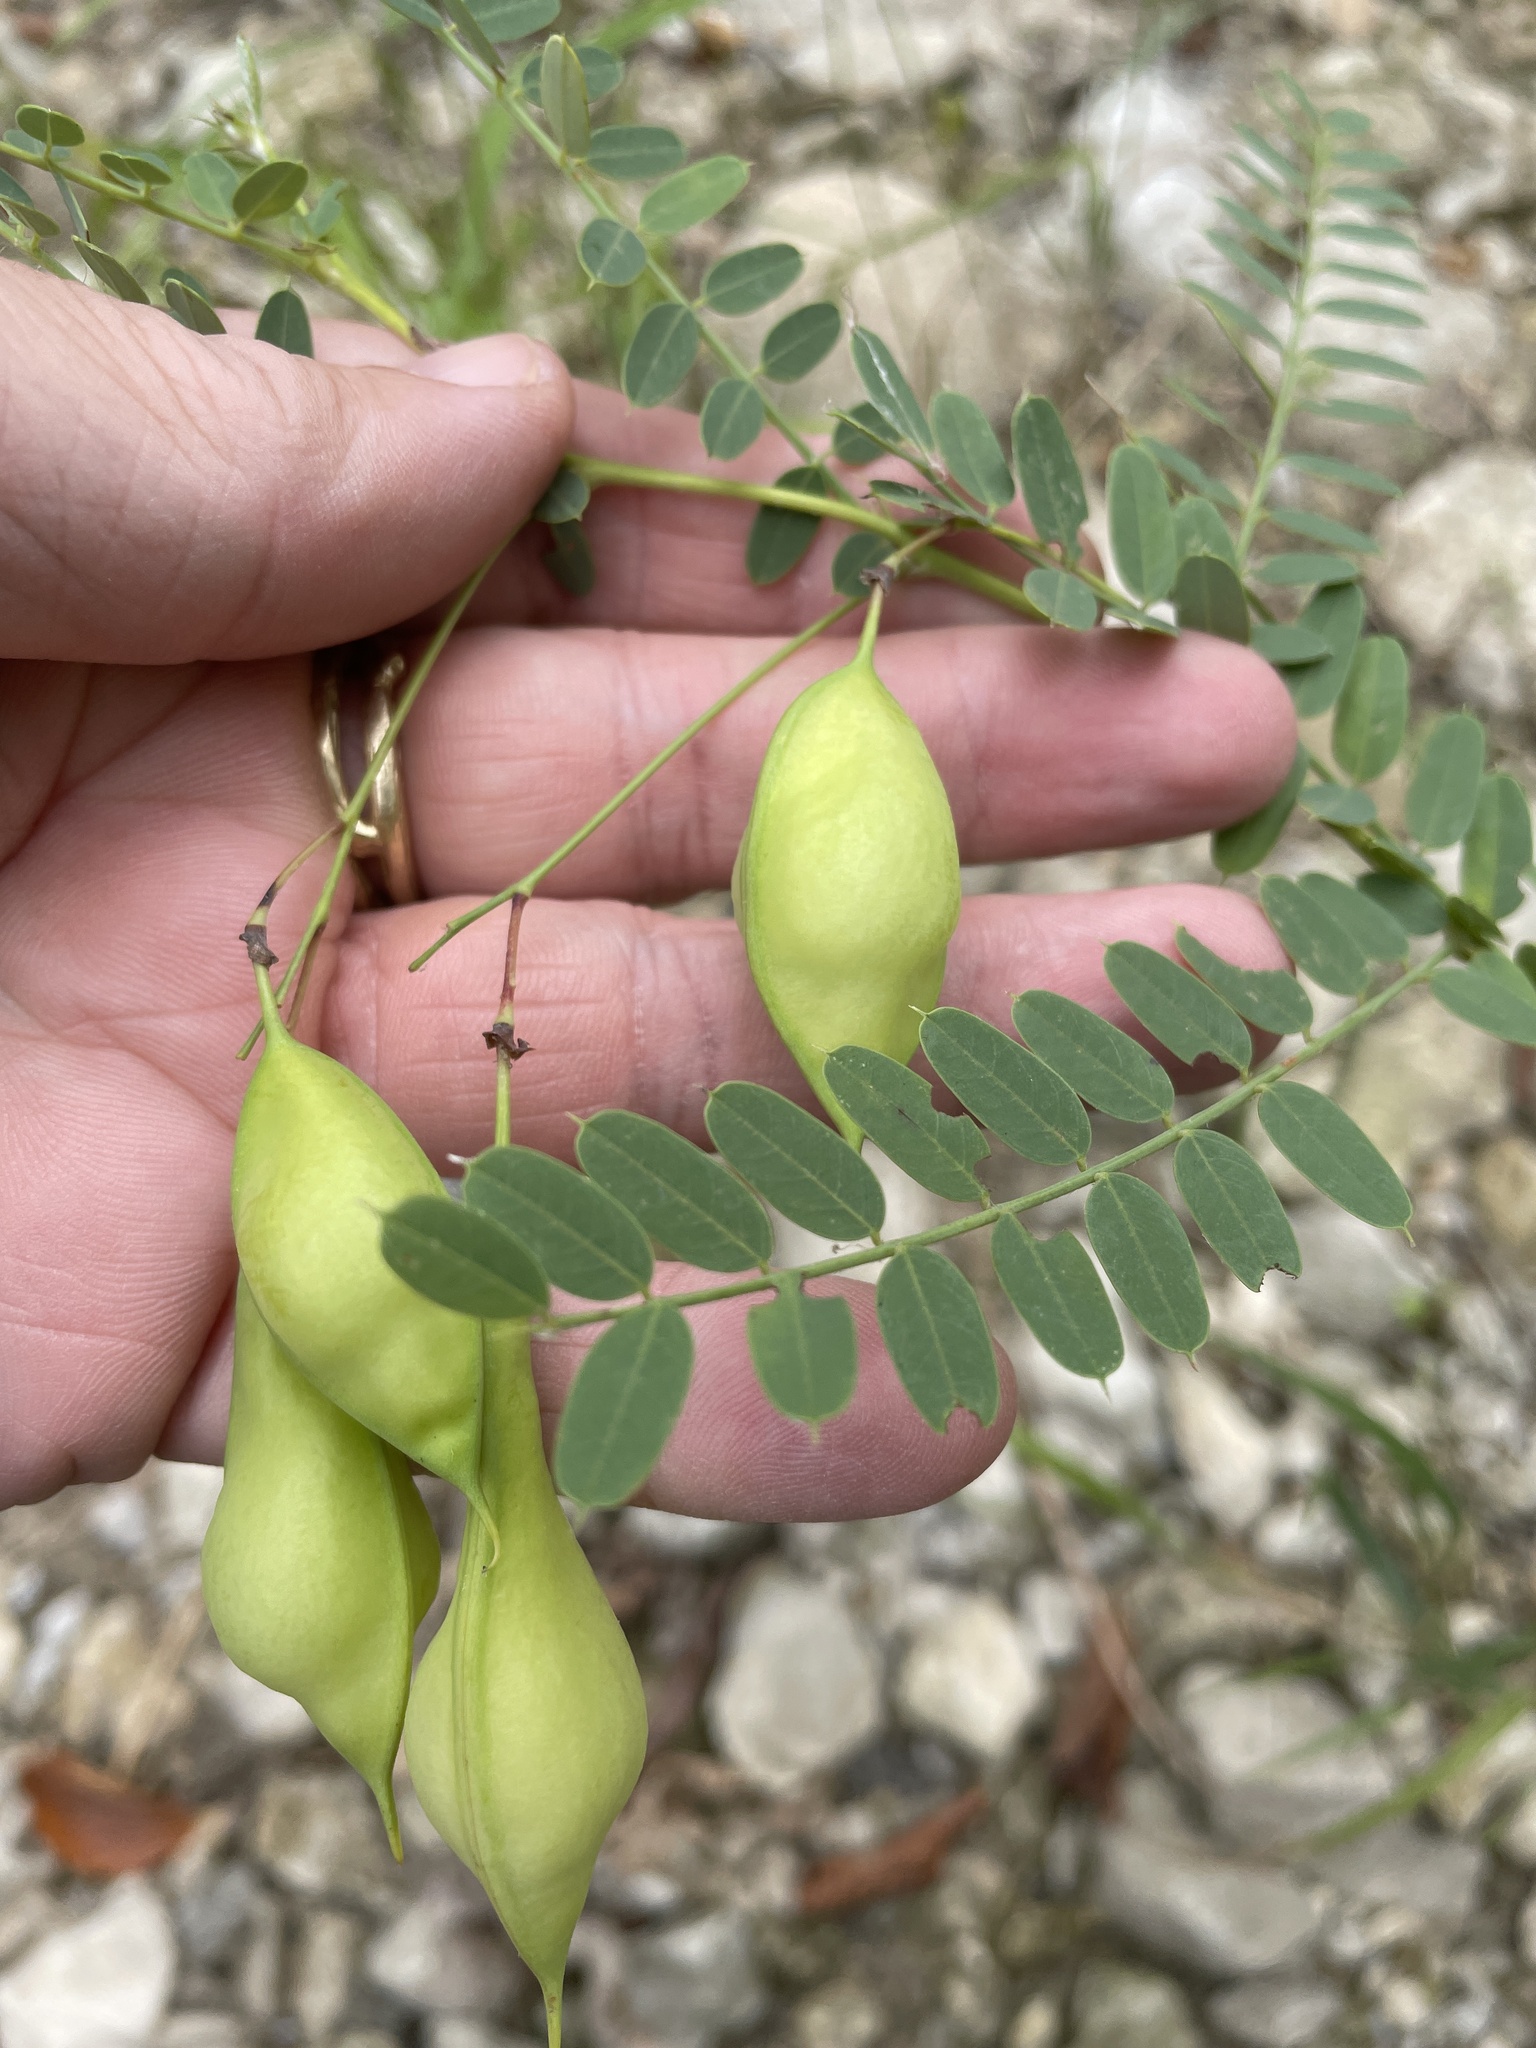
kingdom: Plantae
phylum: Tracheophyta
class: Magnoliopsida
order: Fabales
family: Fabaceae
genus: Sesbania
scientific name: Sesbania vesicaria
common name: Bagpod
